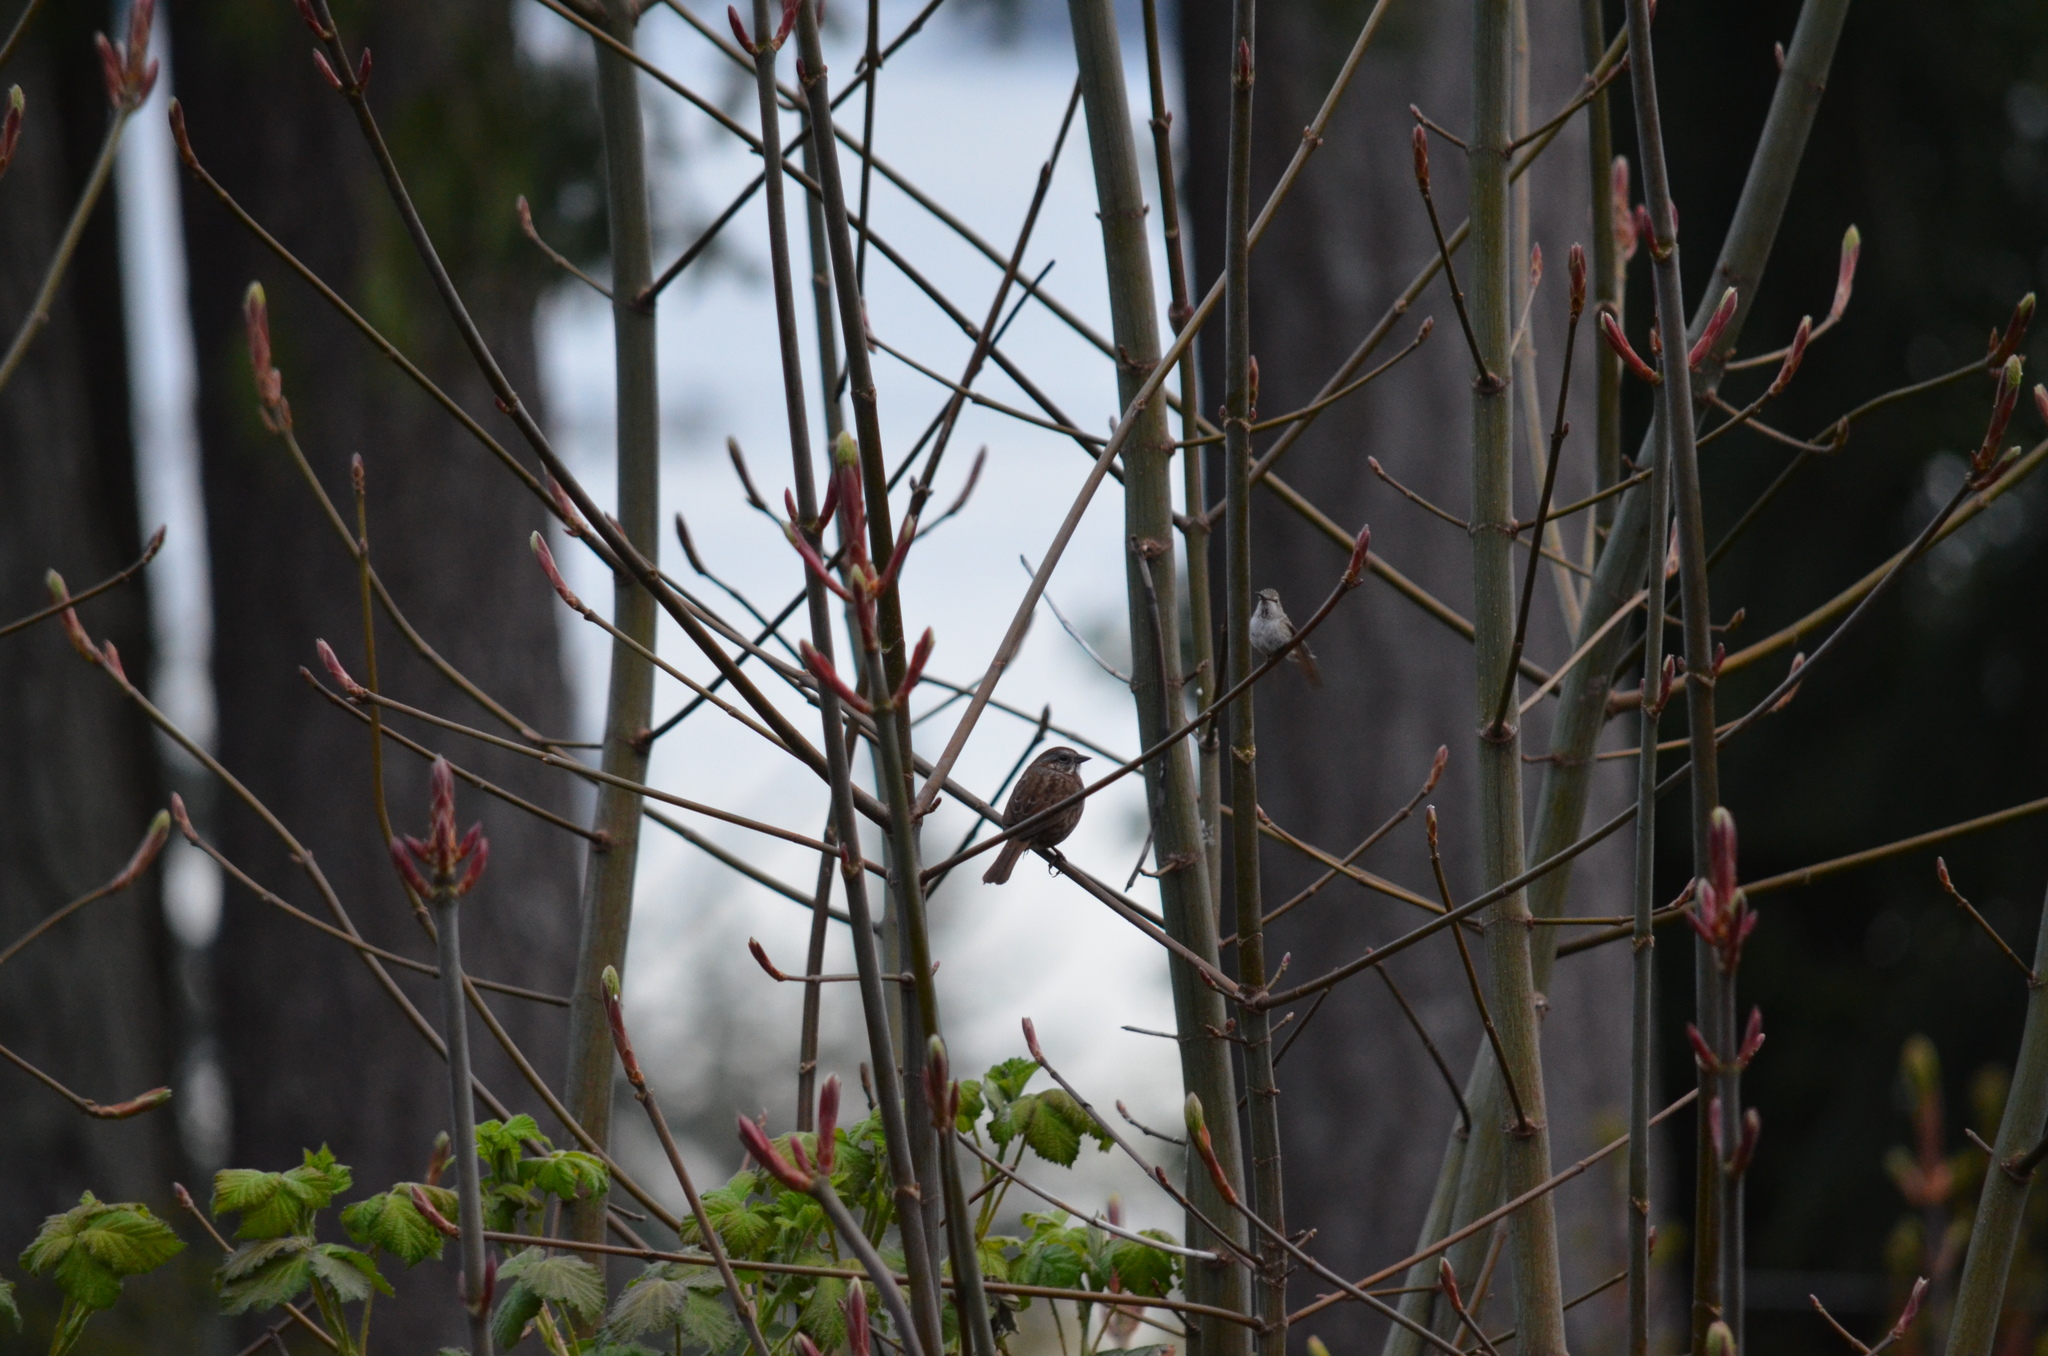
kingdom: Animalia
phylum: Chordata
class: Aves
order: Passeriformes
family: Passerellidae
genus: Melospiza
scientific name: Melospiza melodia
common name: Song sparrow
